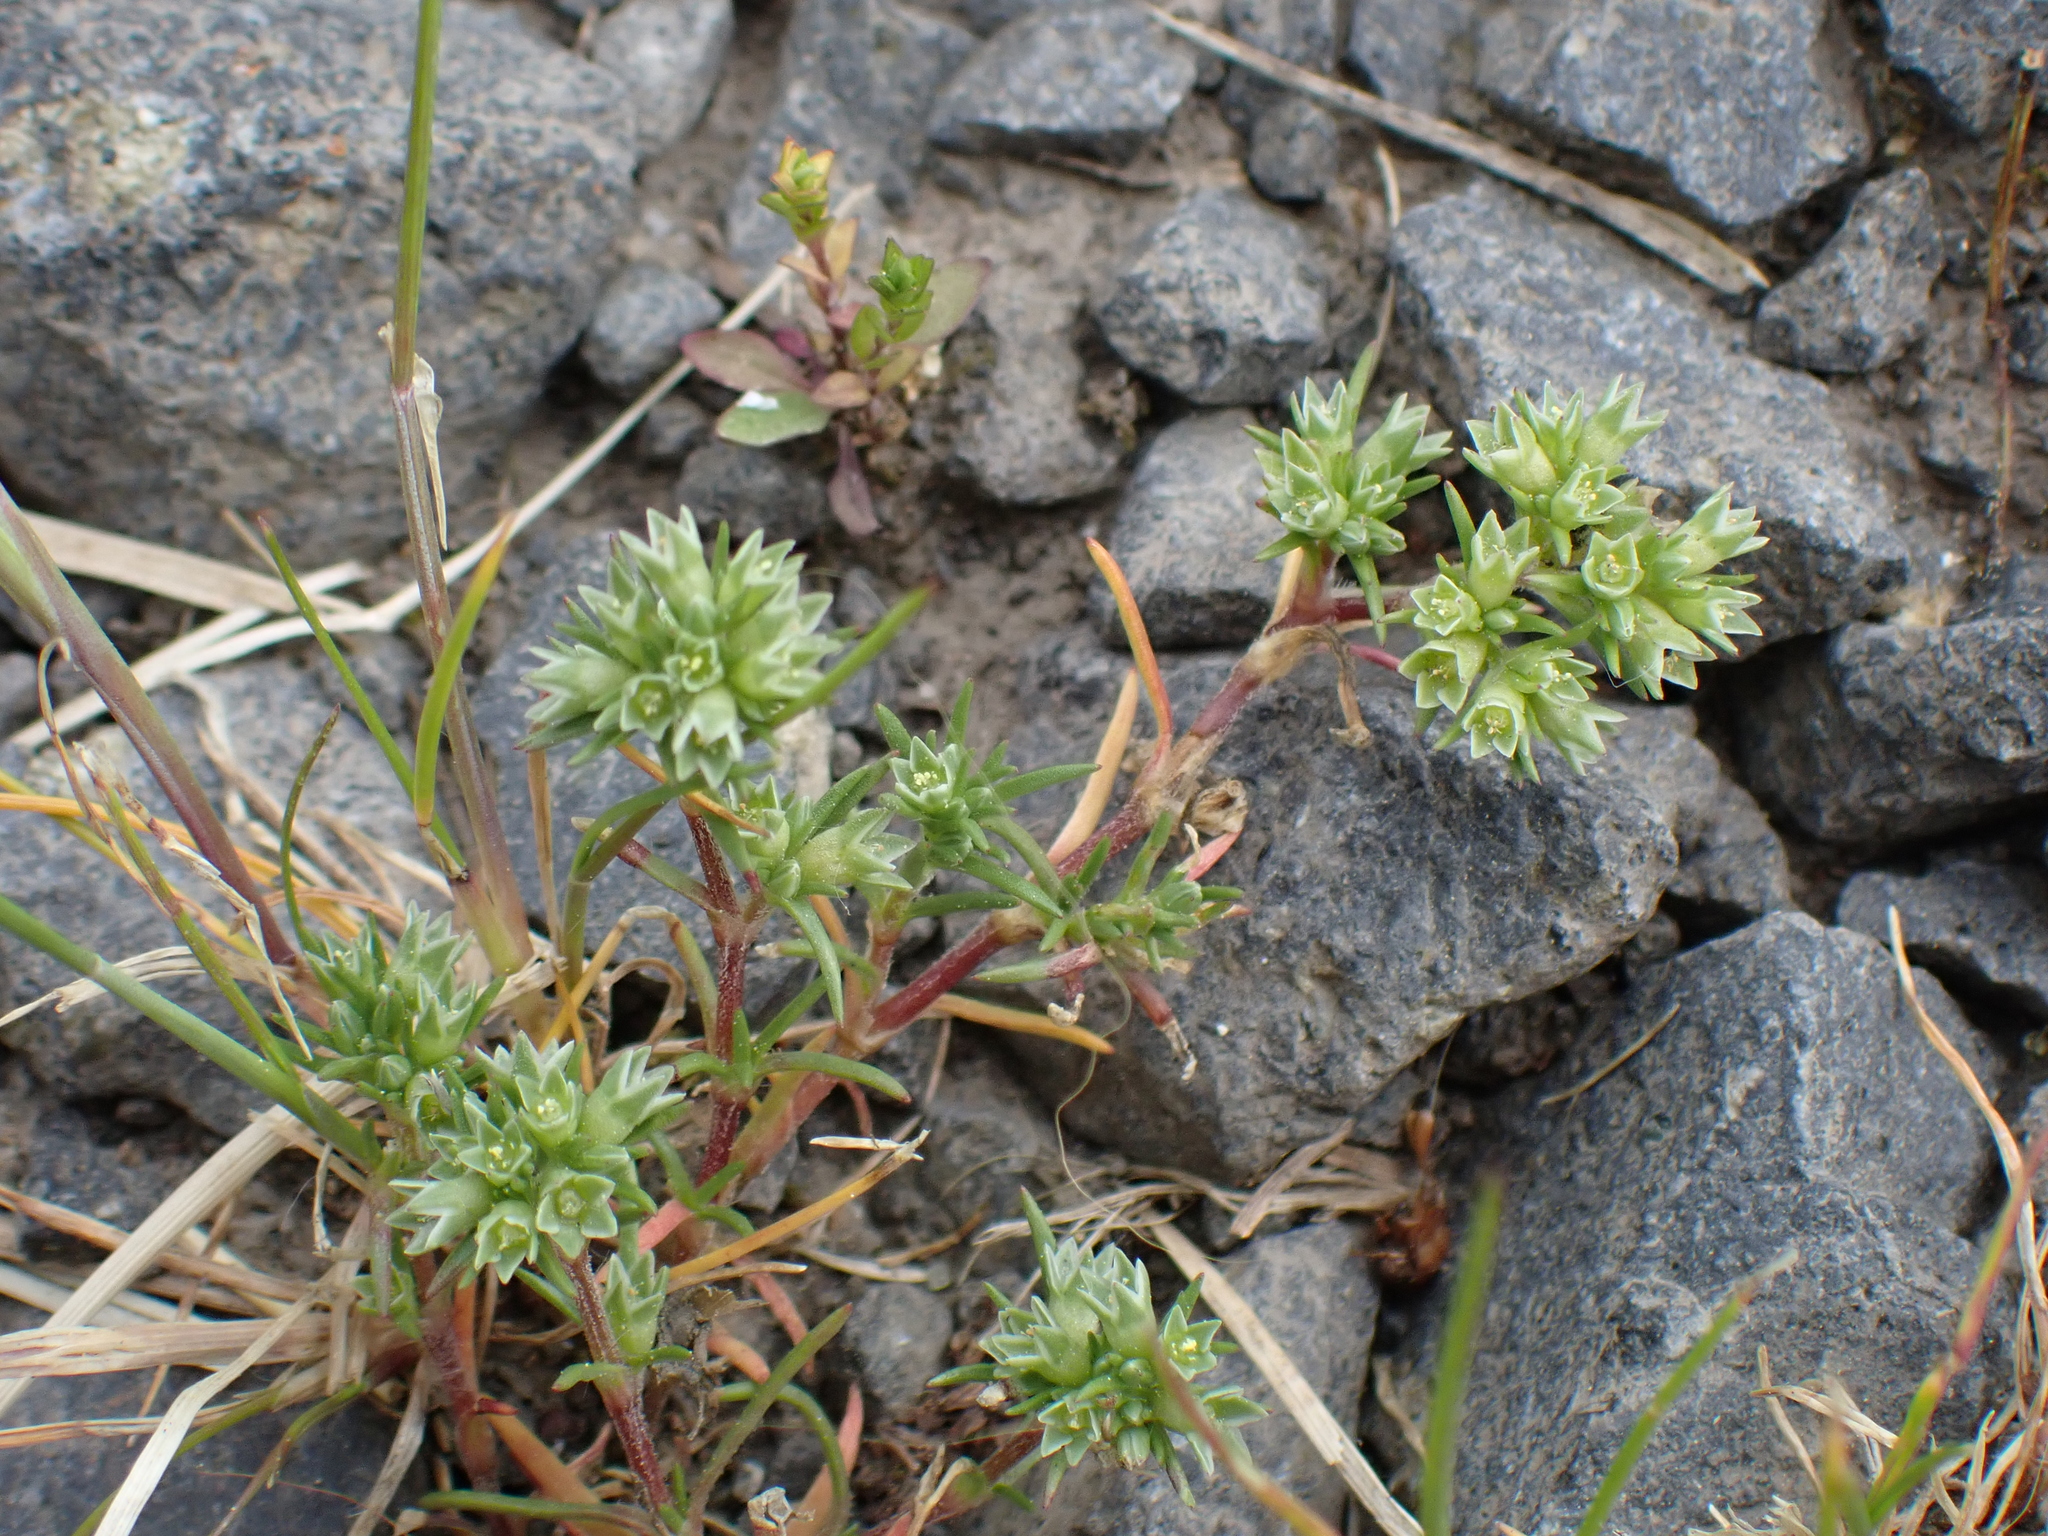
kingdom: Plantae
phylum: Tracheophyta
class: Magnoliopsida
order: Caryophyllales
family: Caryophyllaceae
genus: Scleranthus
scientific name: Scleranthus annuus
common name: Annual knawel
